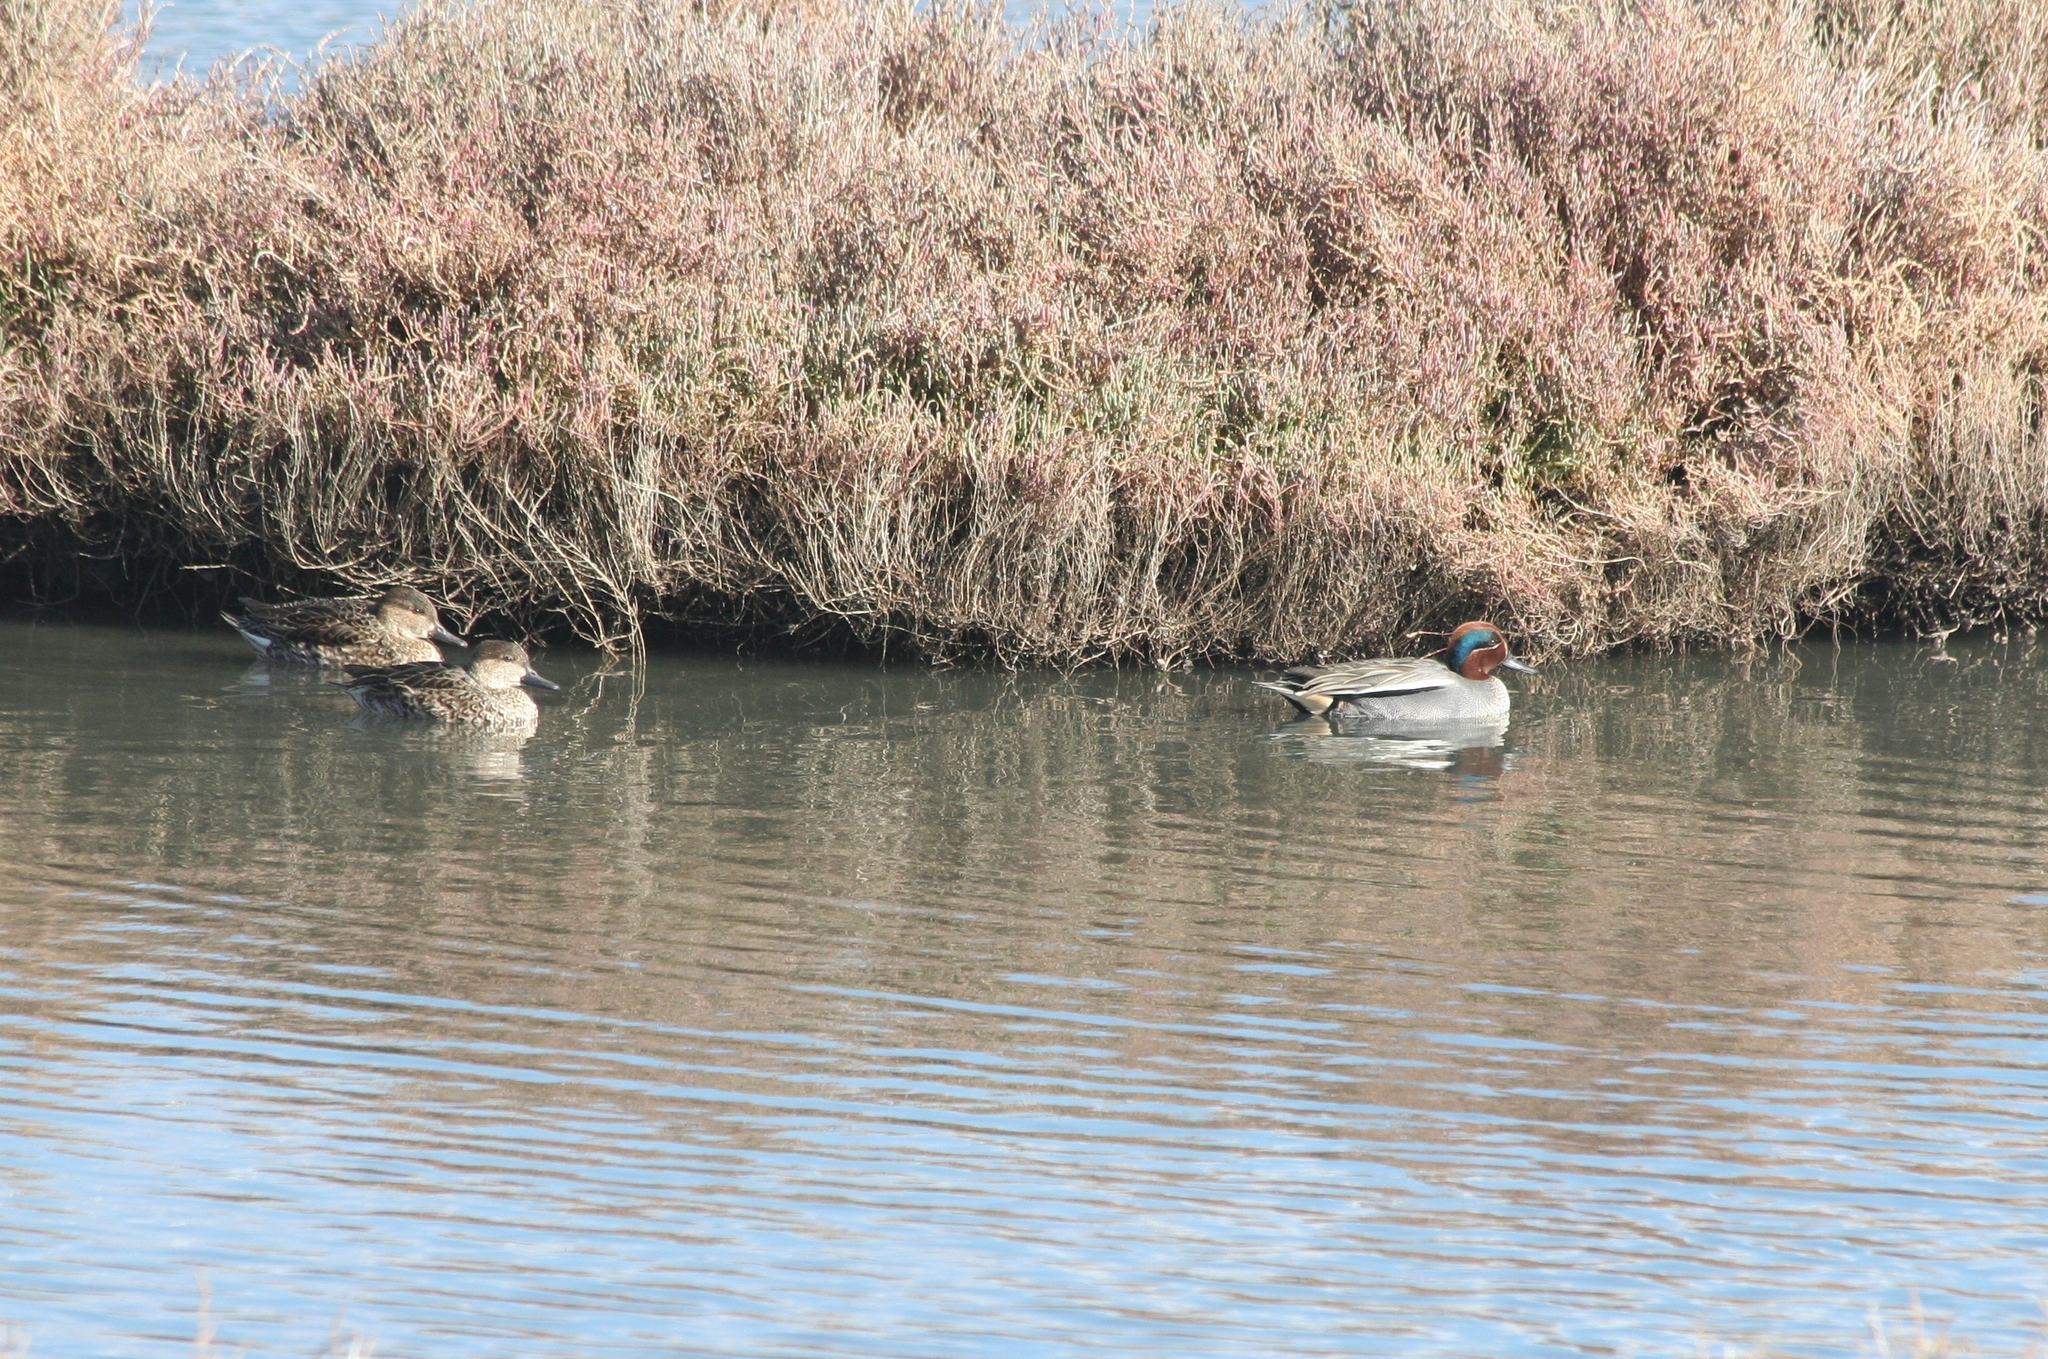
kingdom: Animalia
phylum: Chordata
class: Aves
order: Anseriformes
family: Anatidae
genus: Anas
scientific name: Anas crecca
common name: Eurasian teal
